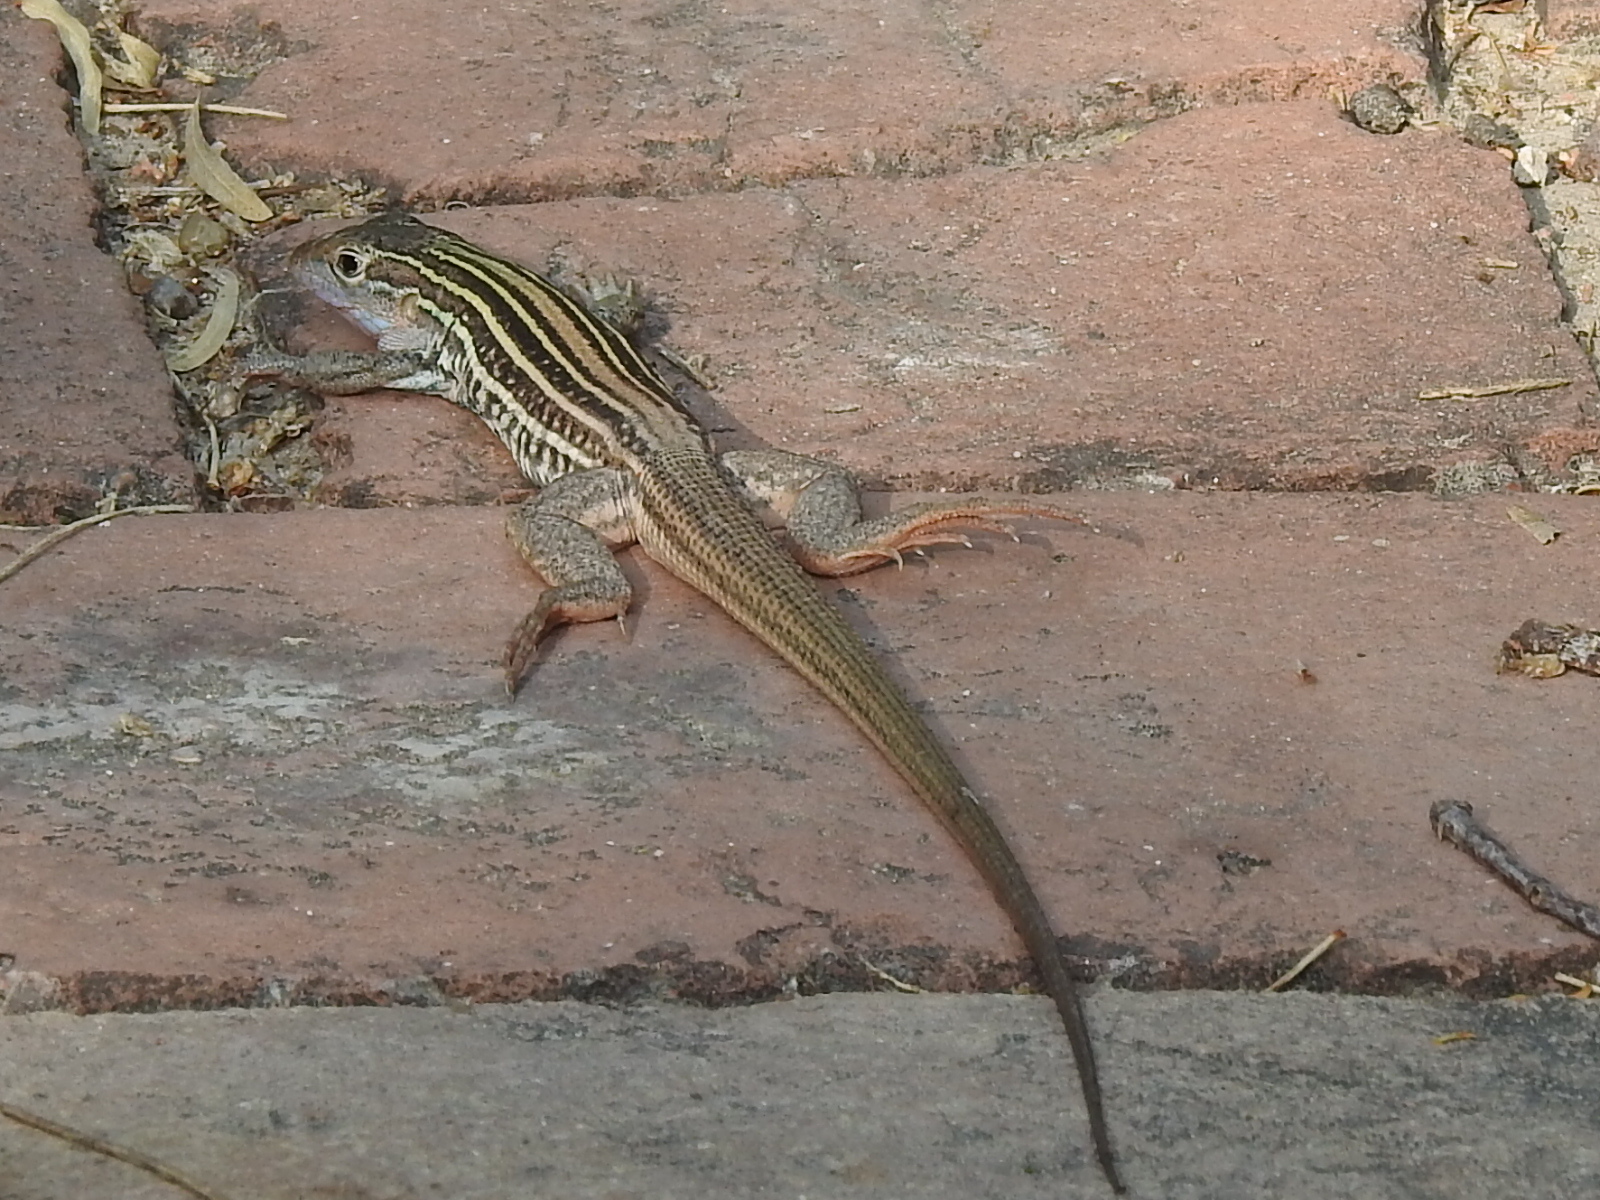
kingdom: Animalia
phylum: Chordata
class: Squamata
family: Teiidae
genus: Aspidoscelis
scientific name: Aspidoscelis gularis
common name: Eastern spotted whiptail
